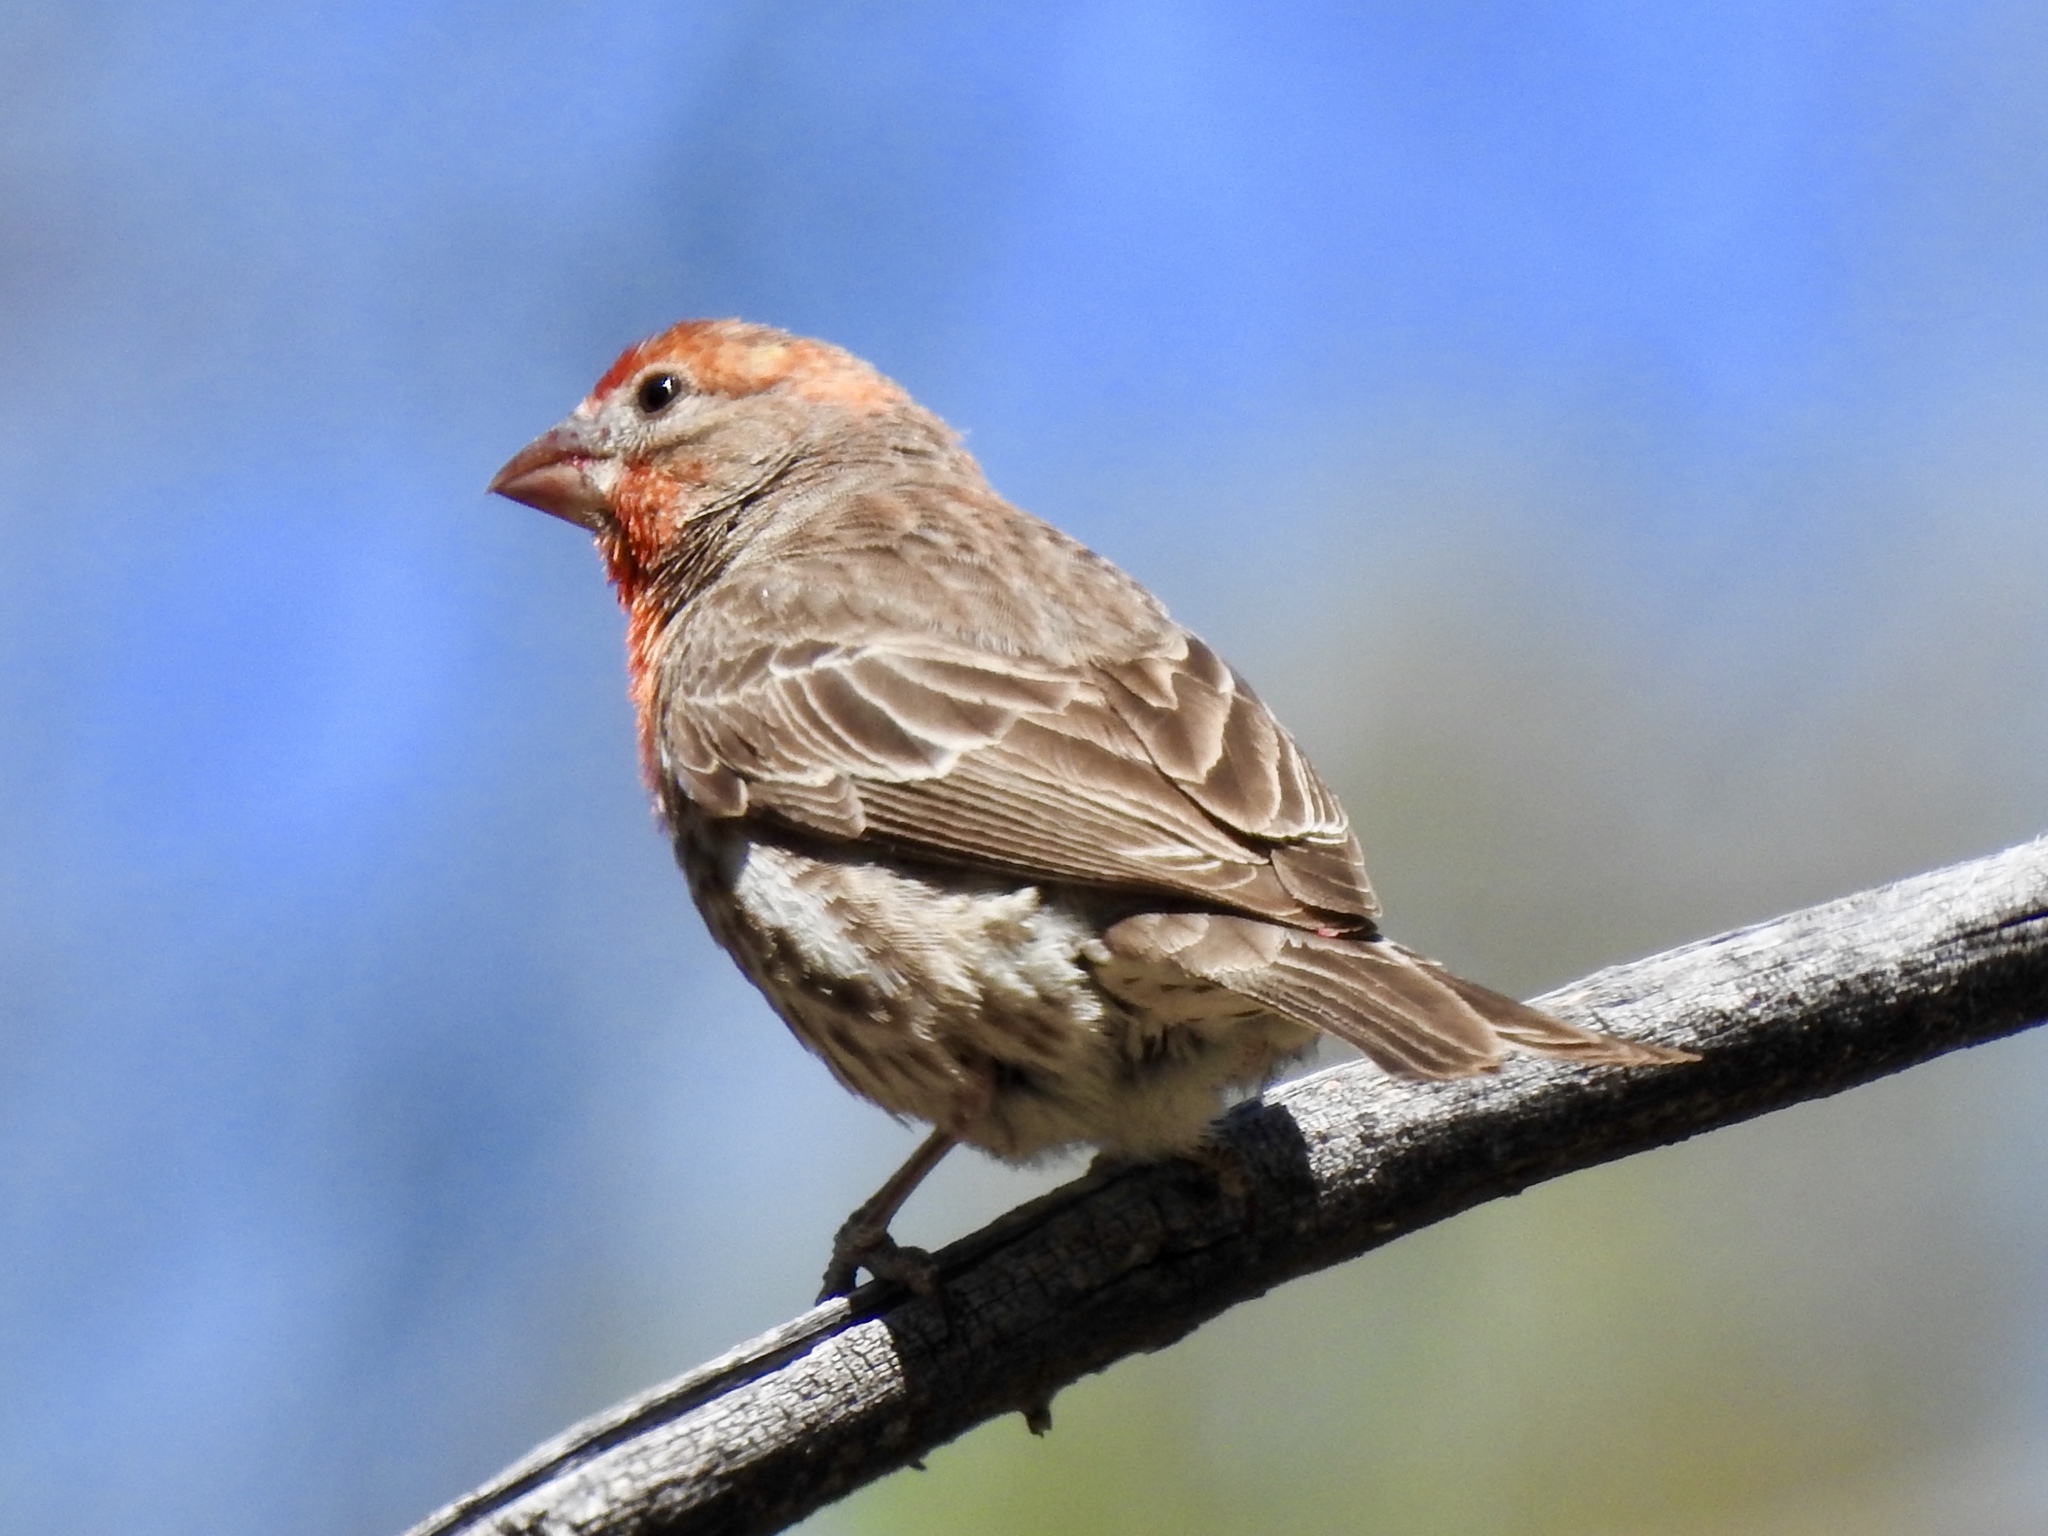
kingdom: Animalia
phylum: Chordata
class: Aves
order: Passeriformes
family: Fringillidae
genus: Haemorhous
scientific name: Haemorhous mexicanus
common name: House finch
